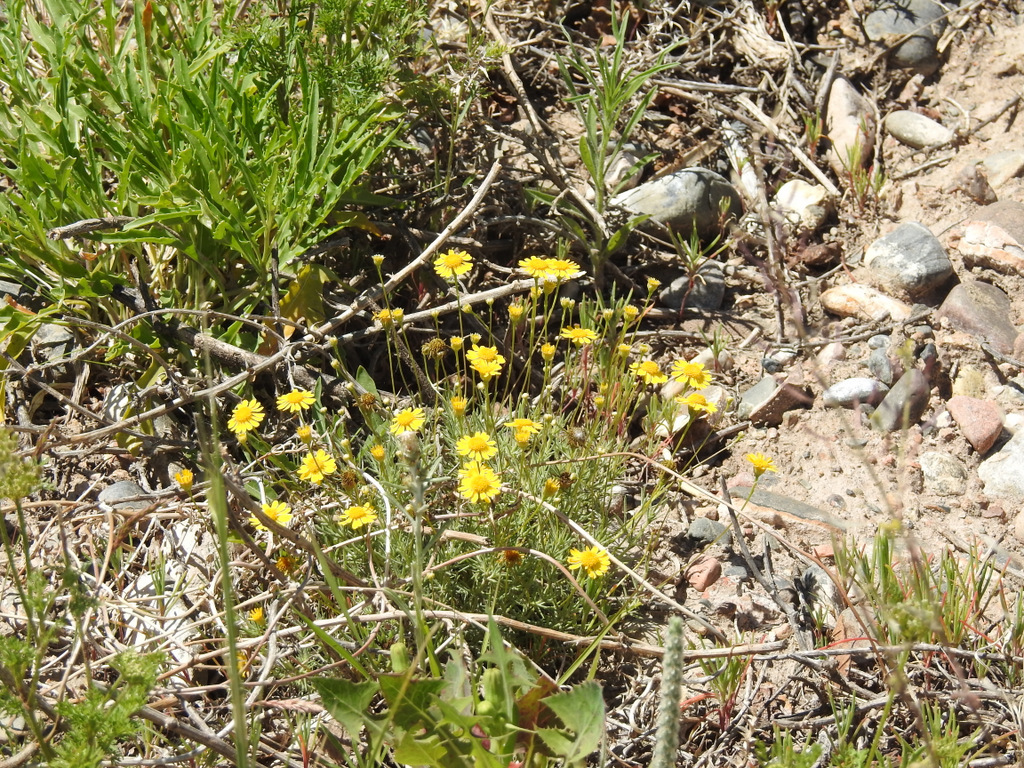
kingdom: Plantae
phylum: Tracheophyta
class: Magnoliopsida
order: Asterales
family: Asteraceae
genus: Thymophylla
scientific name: Thymophylla pentachaeta
